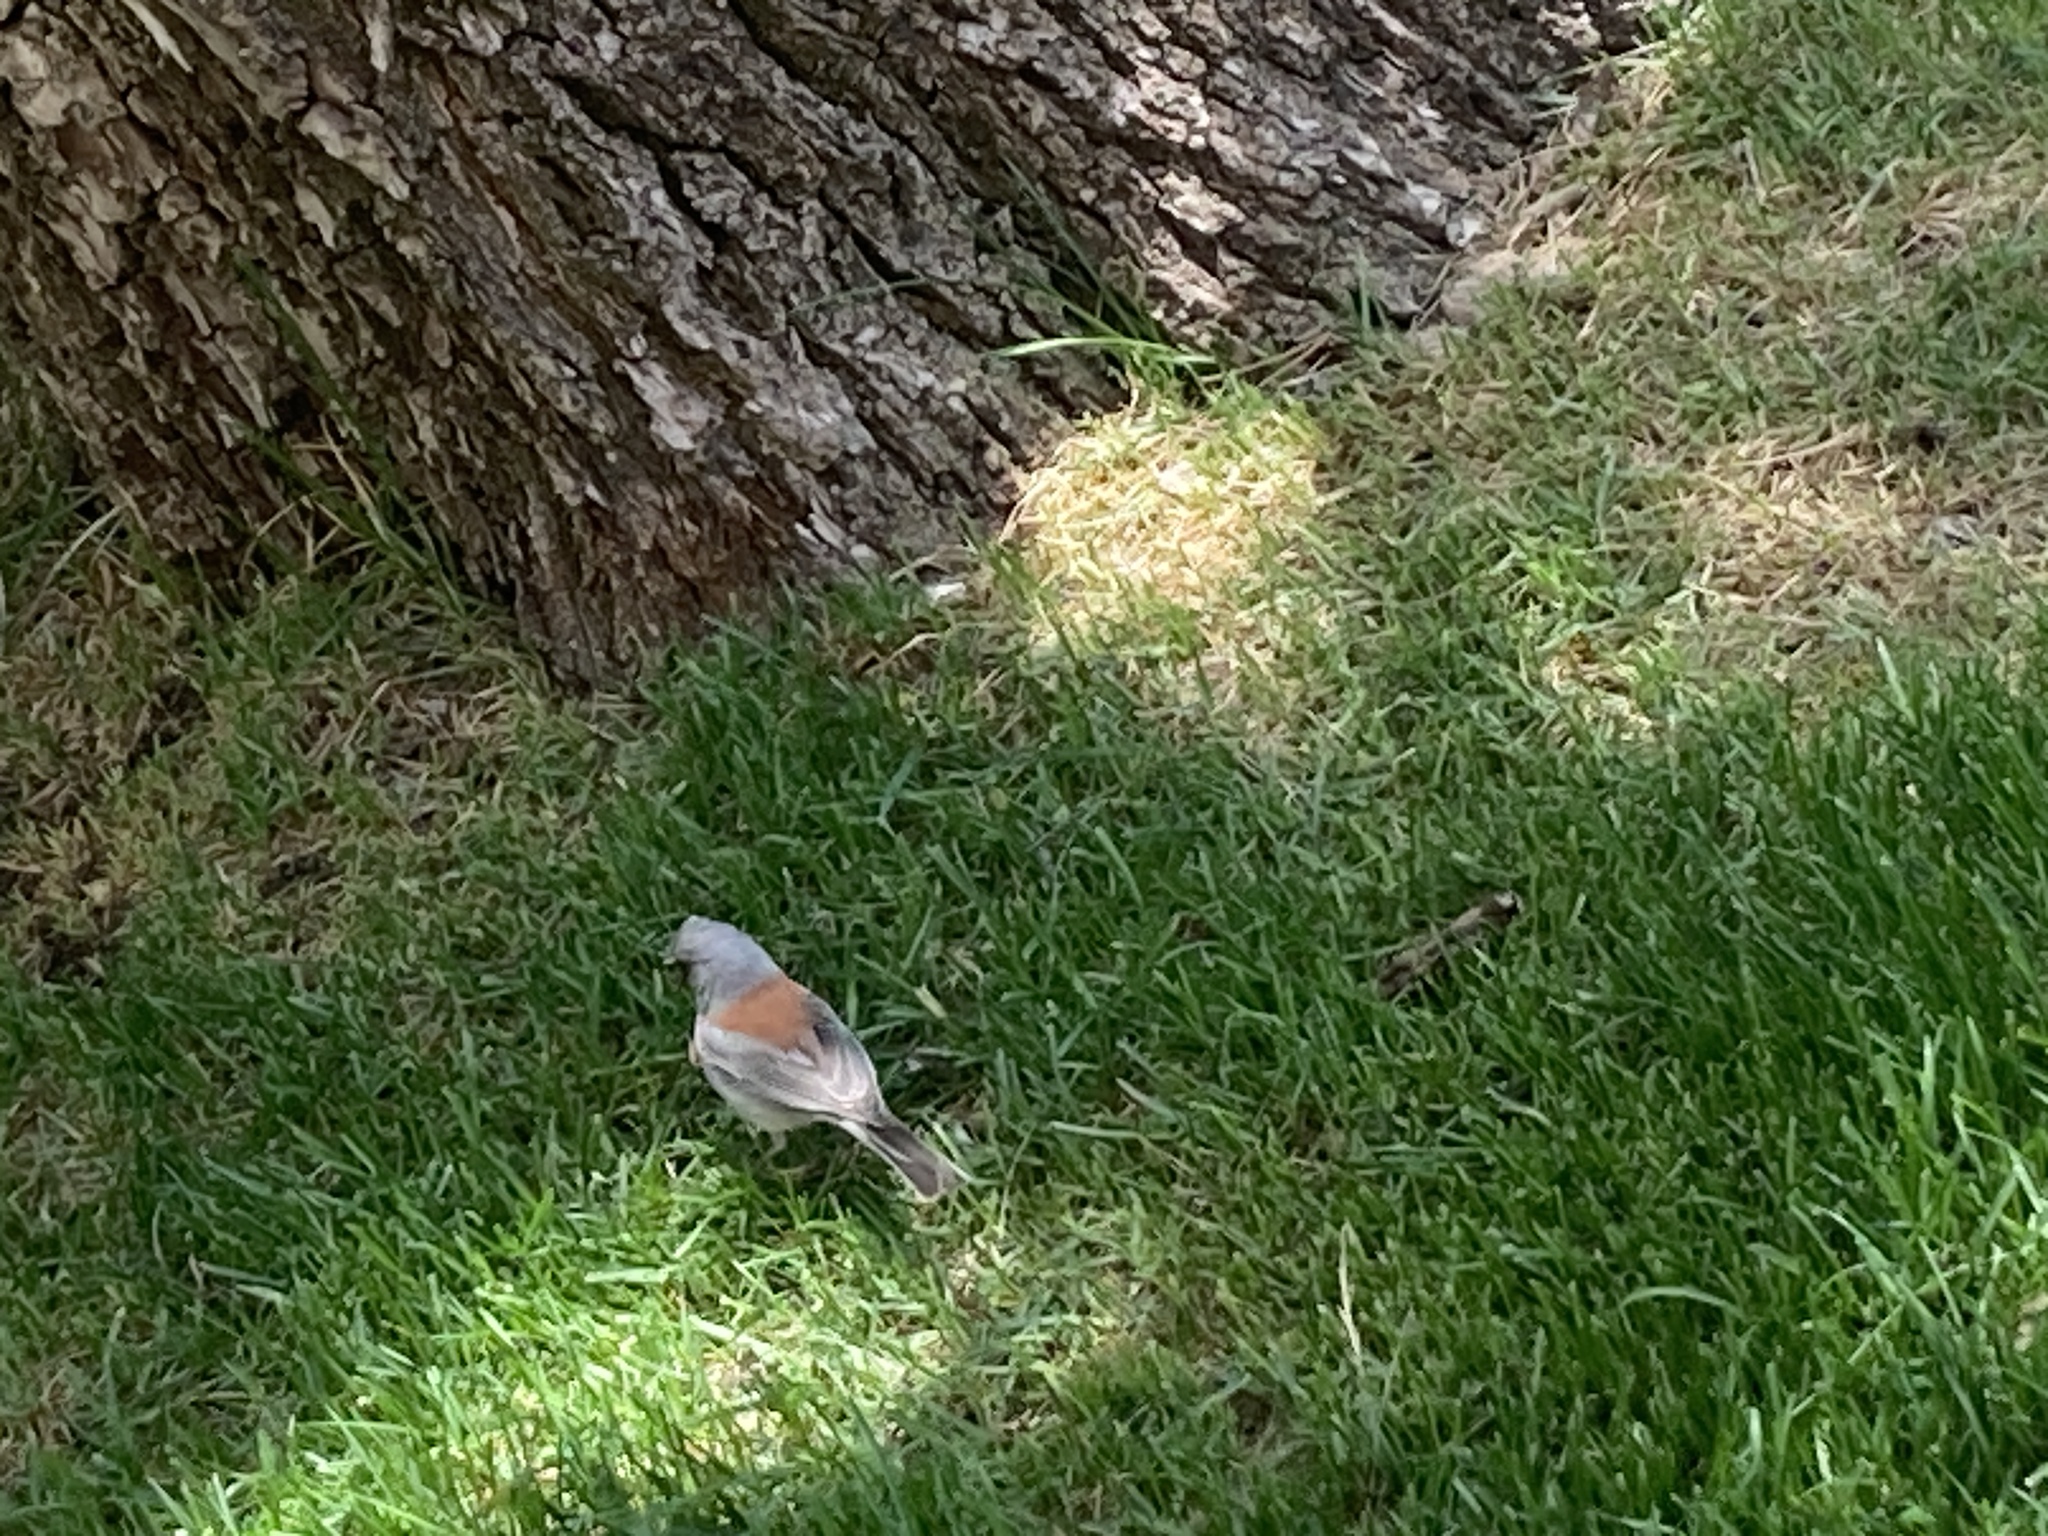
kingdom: Animalia
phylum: Chordata
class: Aves
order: Passeriformes
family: Passerellidae
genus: Junco
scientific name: Junco hyemalis
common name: Dark-eyed junco
